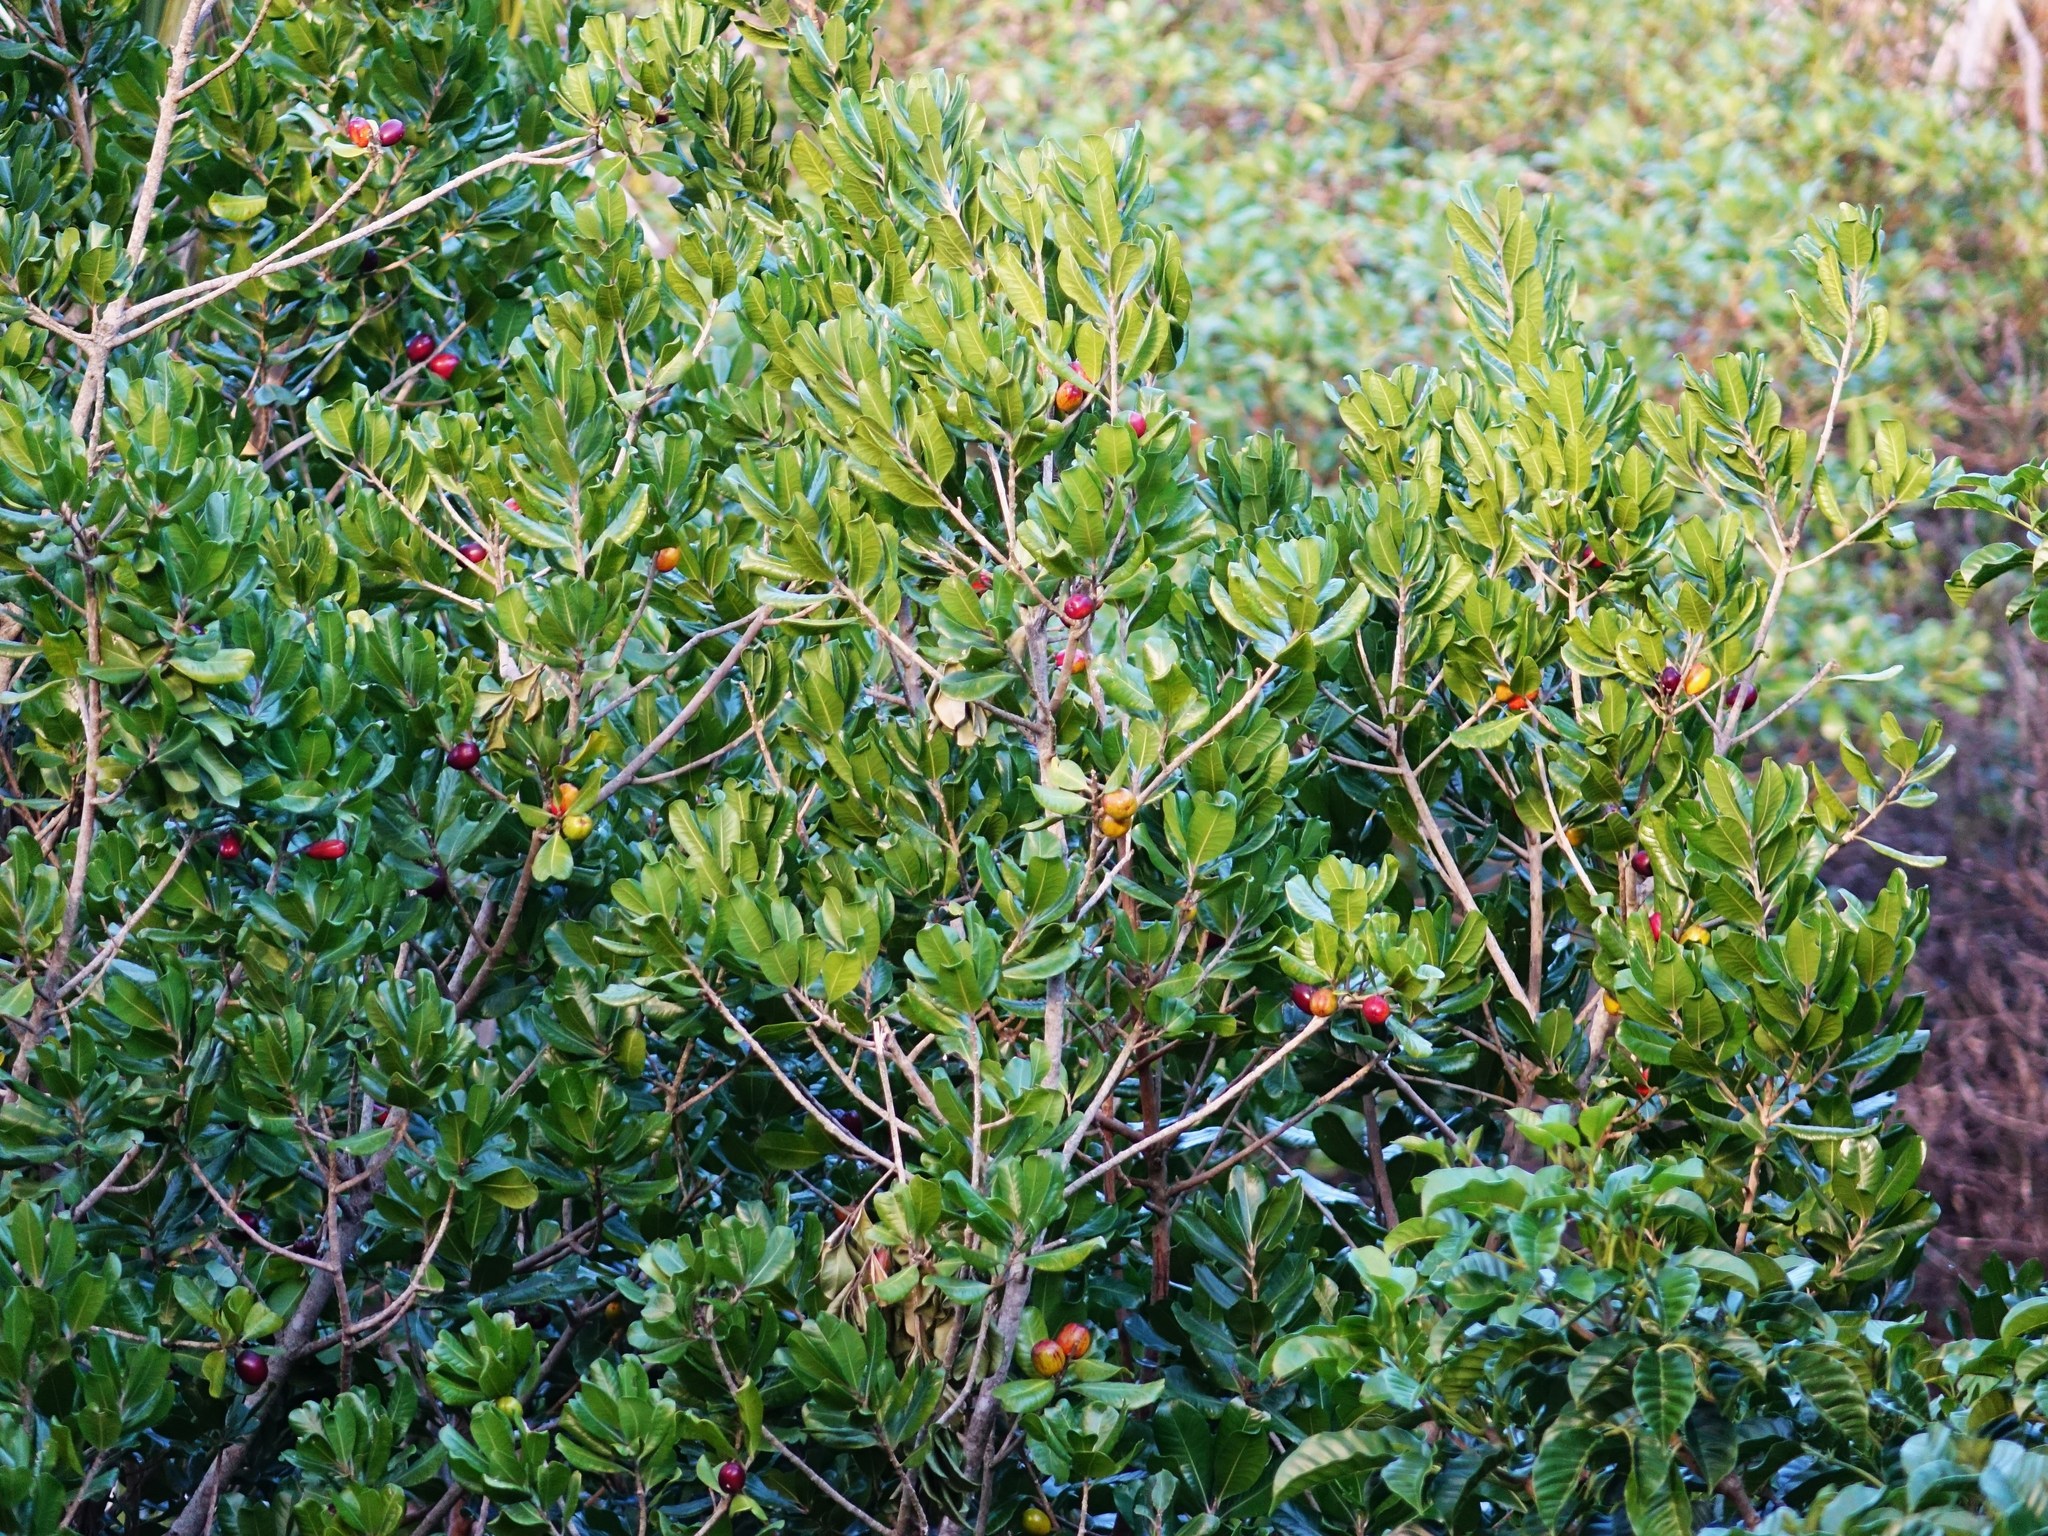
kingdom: Plantae
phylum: Tracheophyta
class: Magnoliopsida
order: Ericales
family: Sapotaceae
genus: Planchonella
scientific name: Planchonella costata
